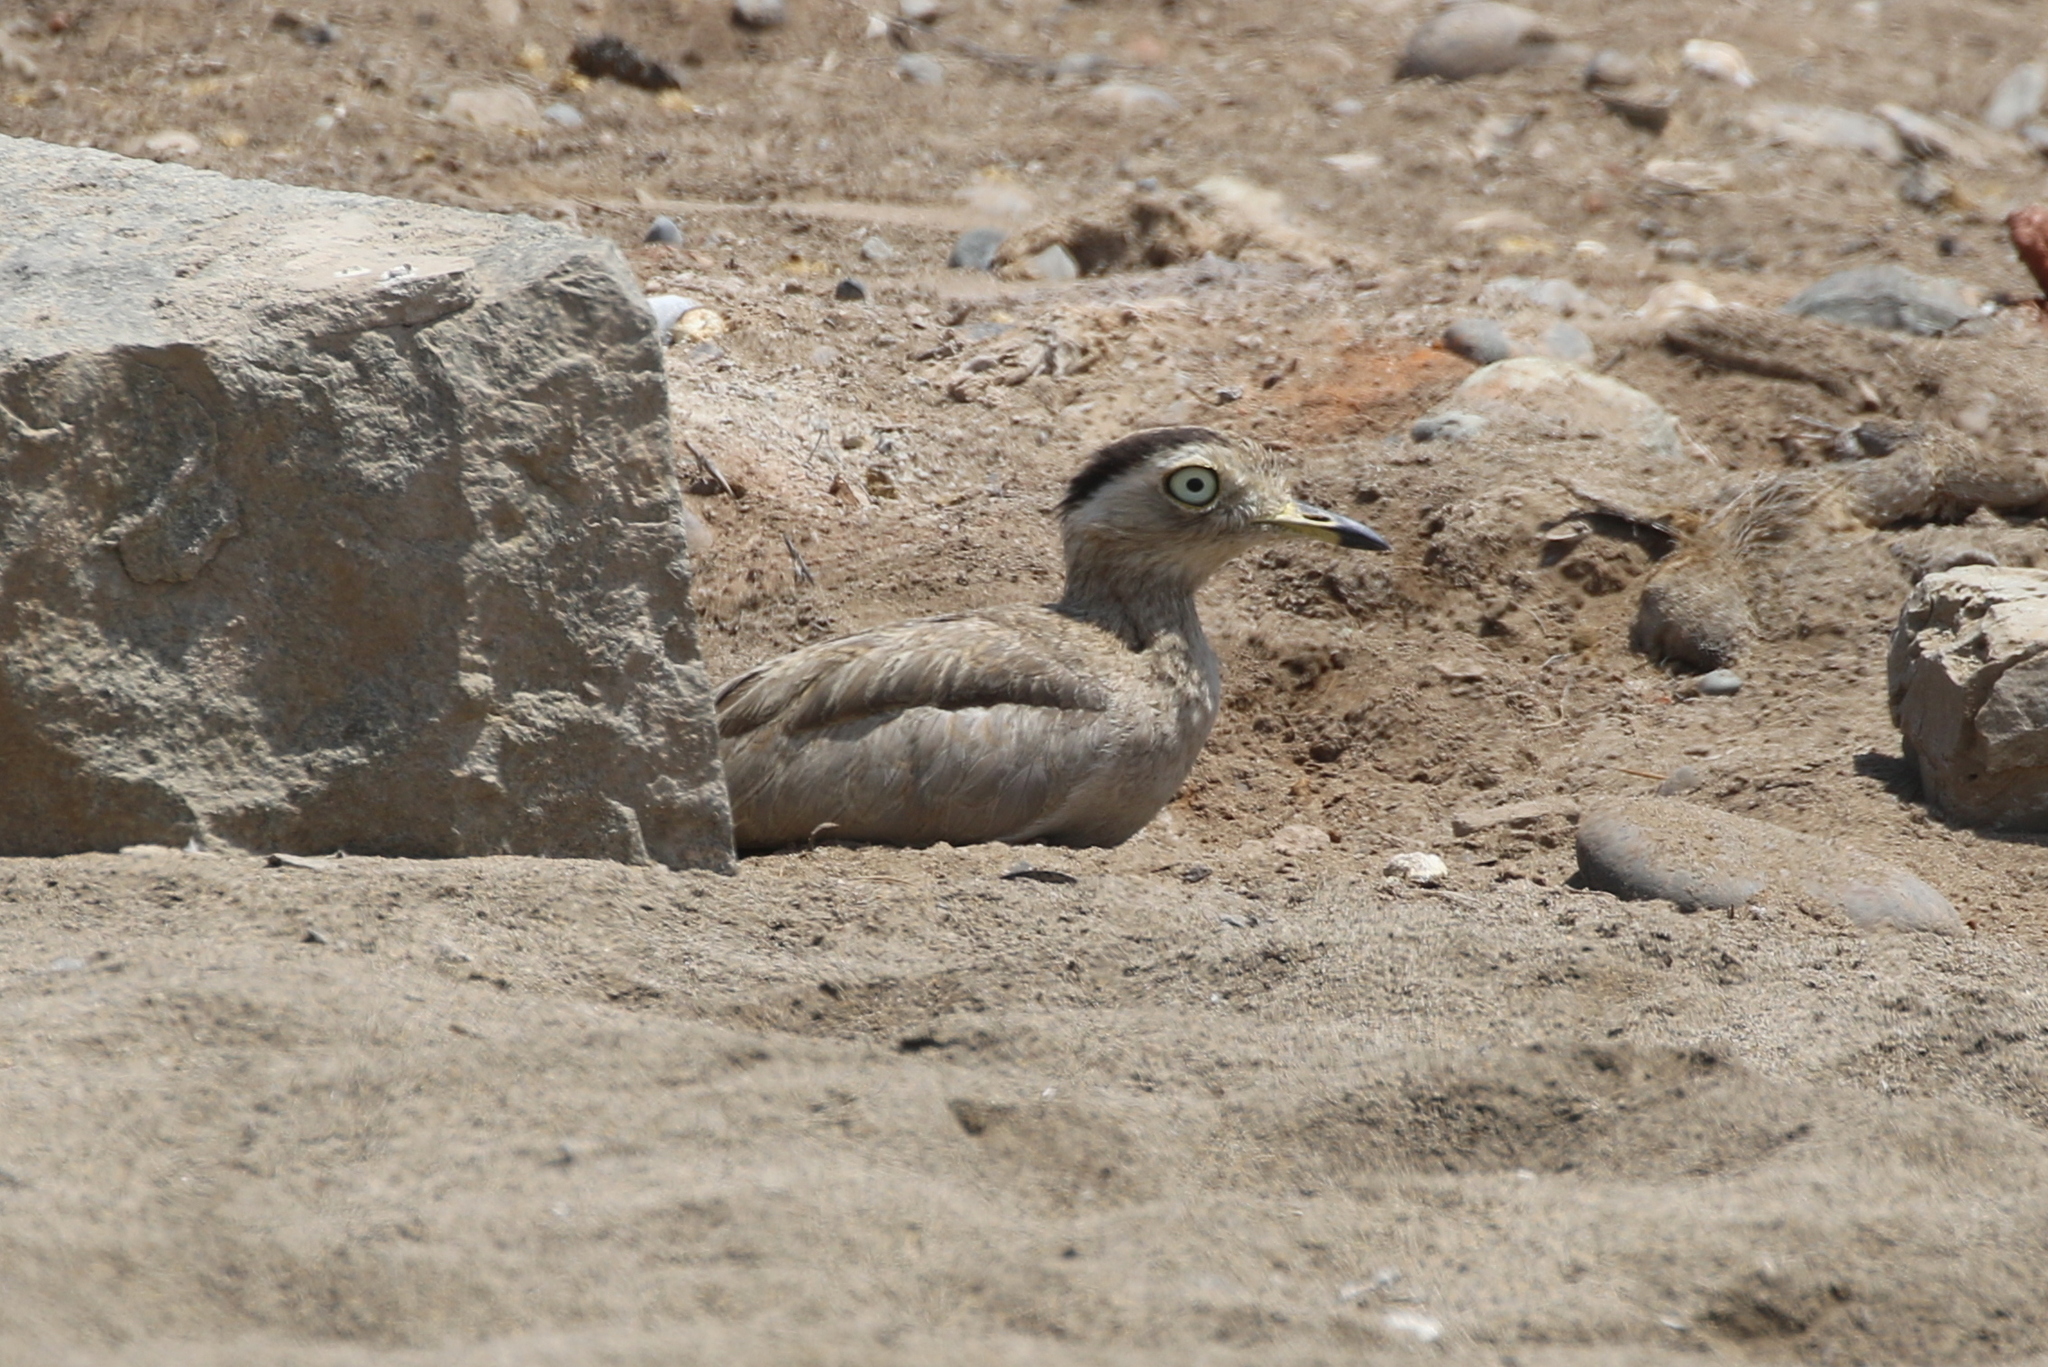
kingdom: Animalia
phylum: Chordata
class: Aves
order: Charadriiformes
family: Burhinidae
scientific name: Burhinidae
